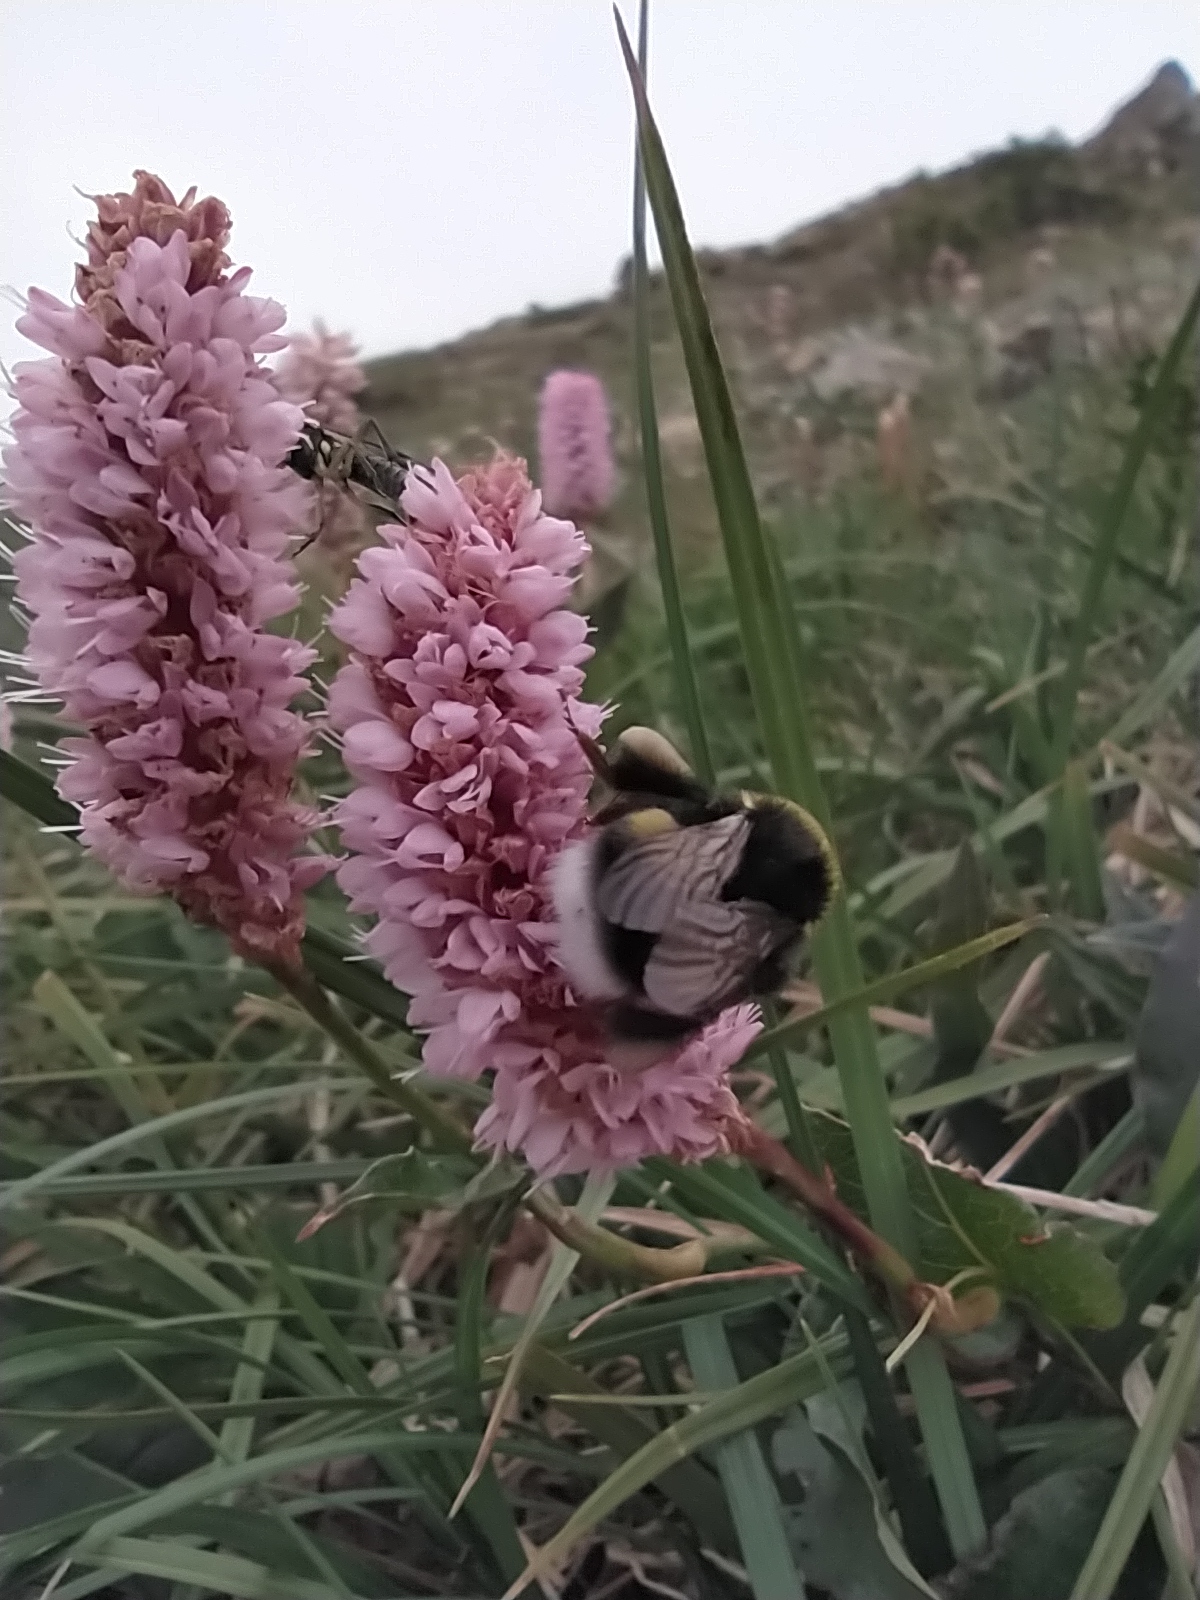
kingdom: Animalia
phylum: Arthropoda
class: Insecta
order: Hymenoptera
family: Apidae
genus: Bombus
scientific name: Bombus
